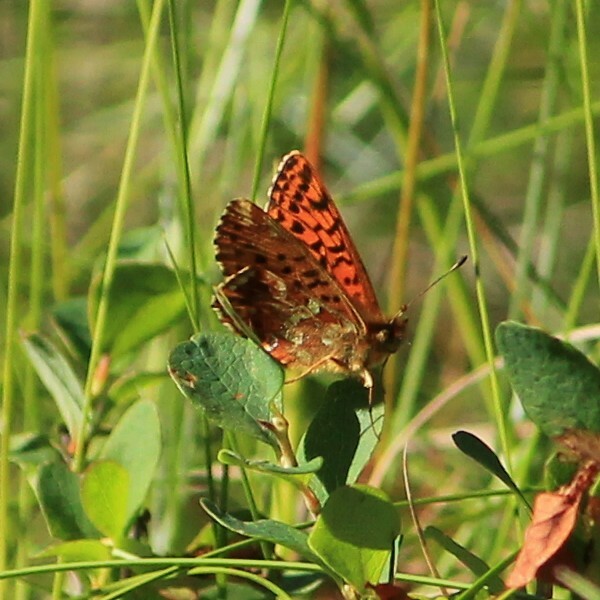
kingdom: Animalia
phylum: Arthropoda
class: Insecta
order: Lepidoptera
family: Nymphalidae
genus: Boloria
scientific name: Boloria aquilonaris
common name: Cranberry fritillary
